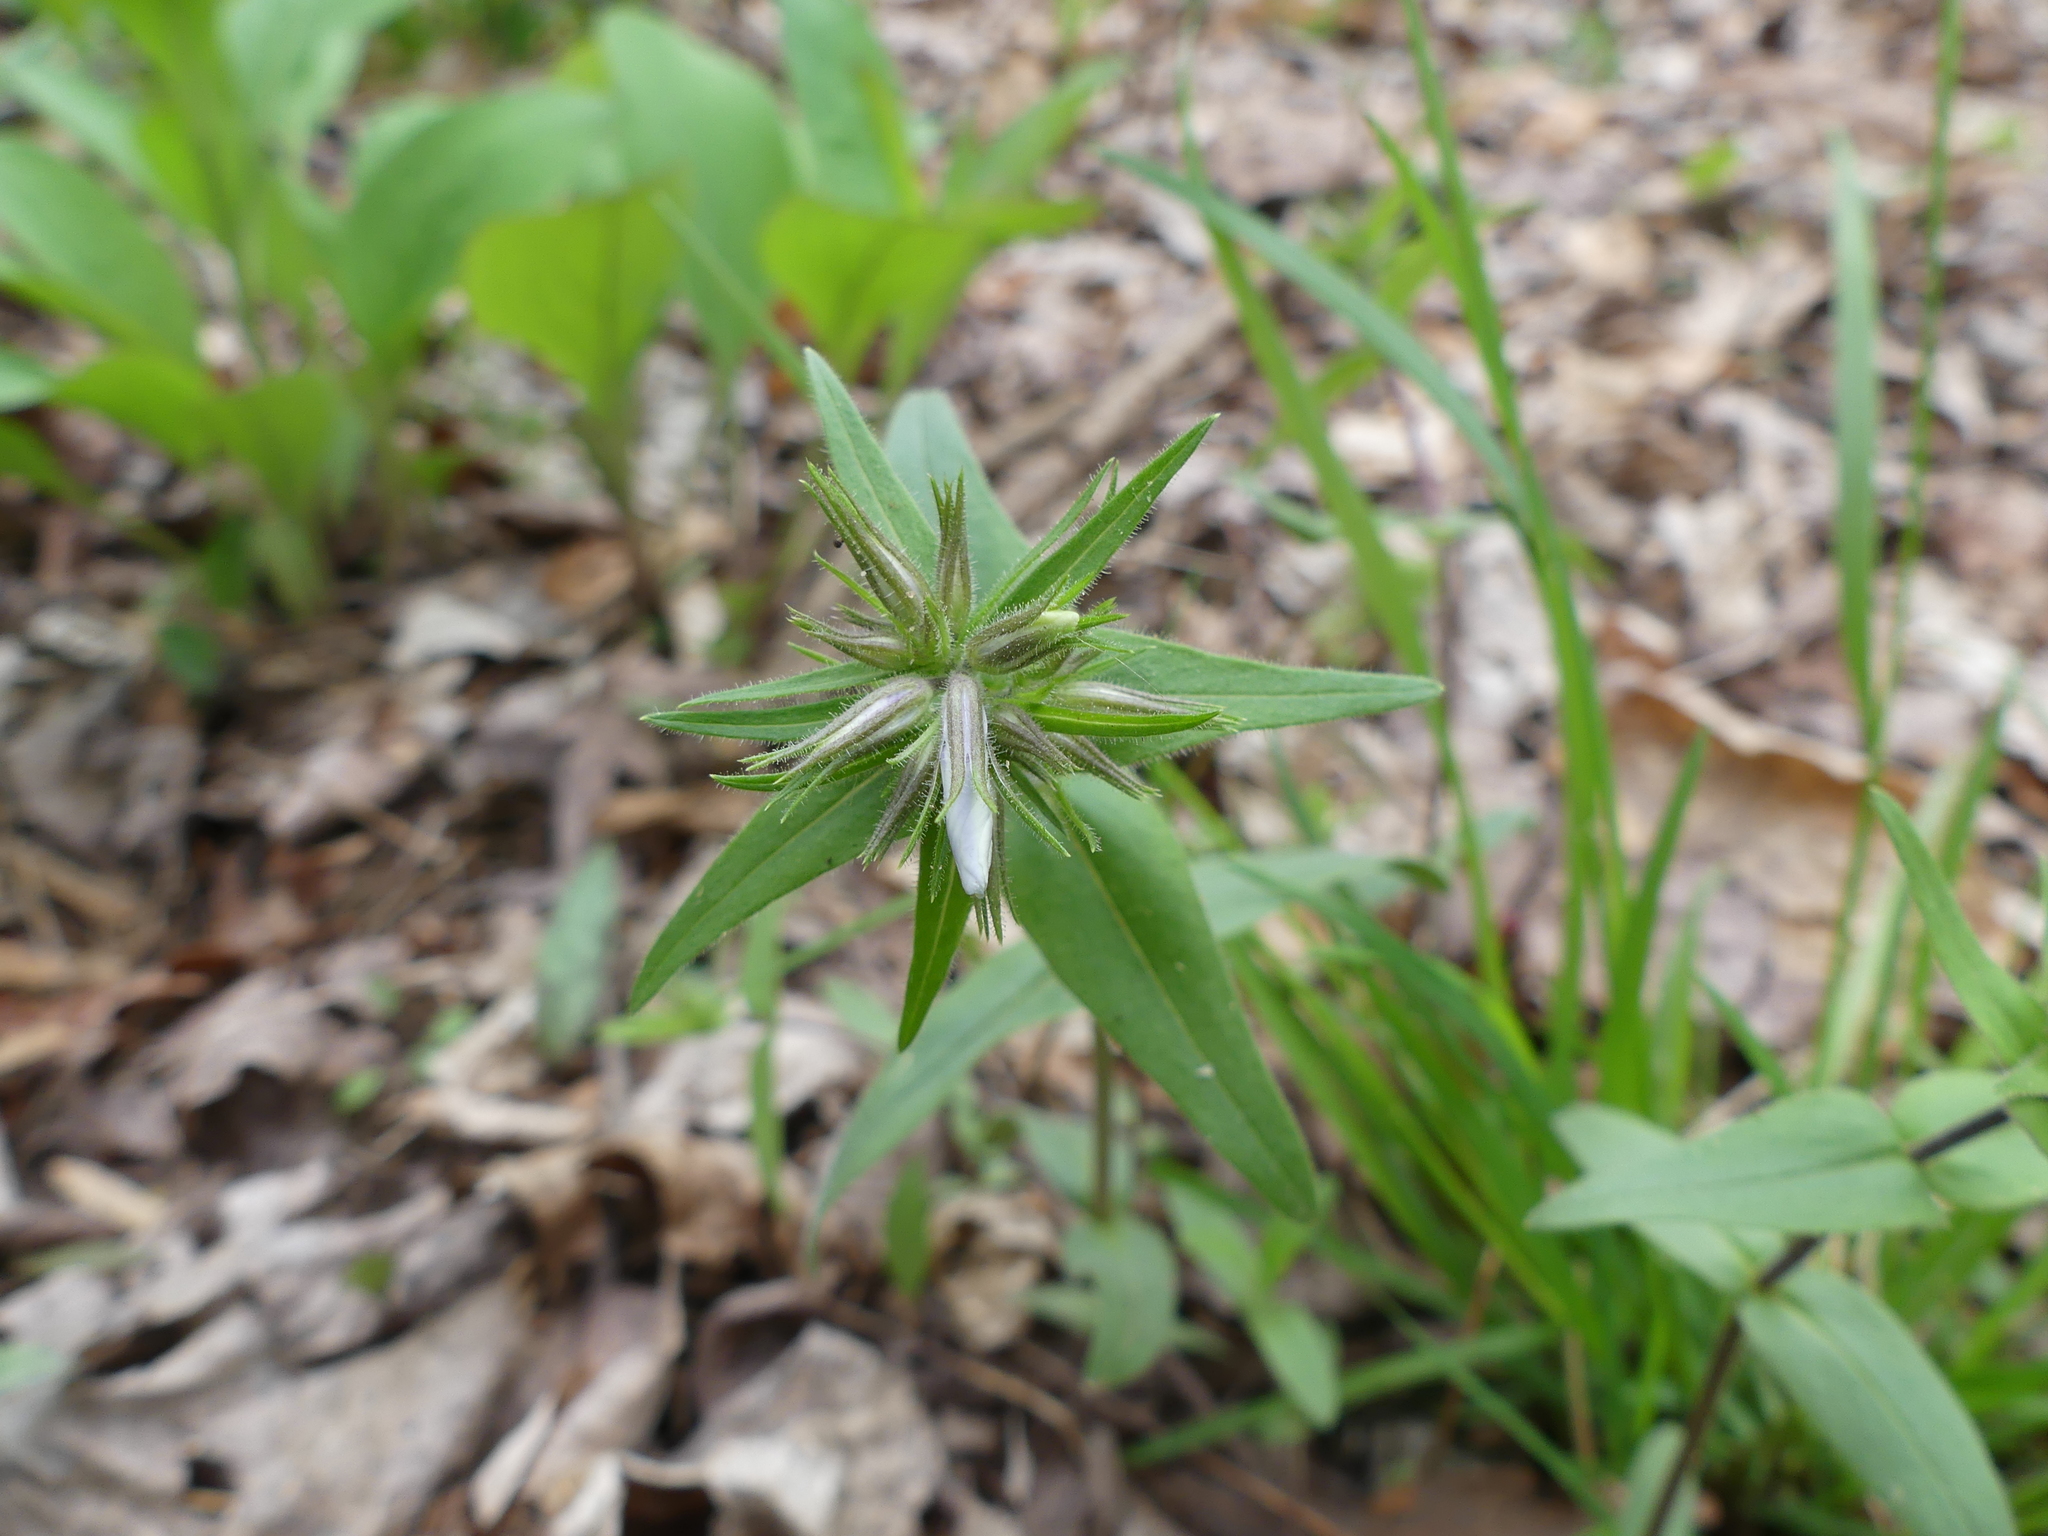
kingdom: Plantae
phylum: Tracheophyta
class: Magnoliopsida
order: Ericales
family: Polemoniaceae
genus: Phlox
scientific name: Phlox divaricata
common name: Blue phlox
